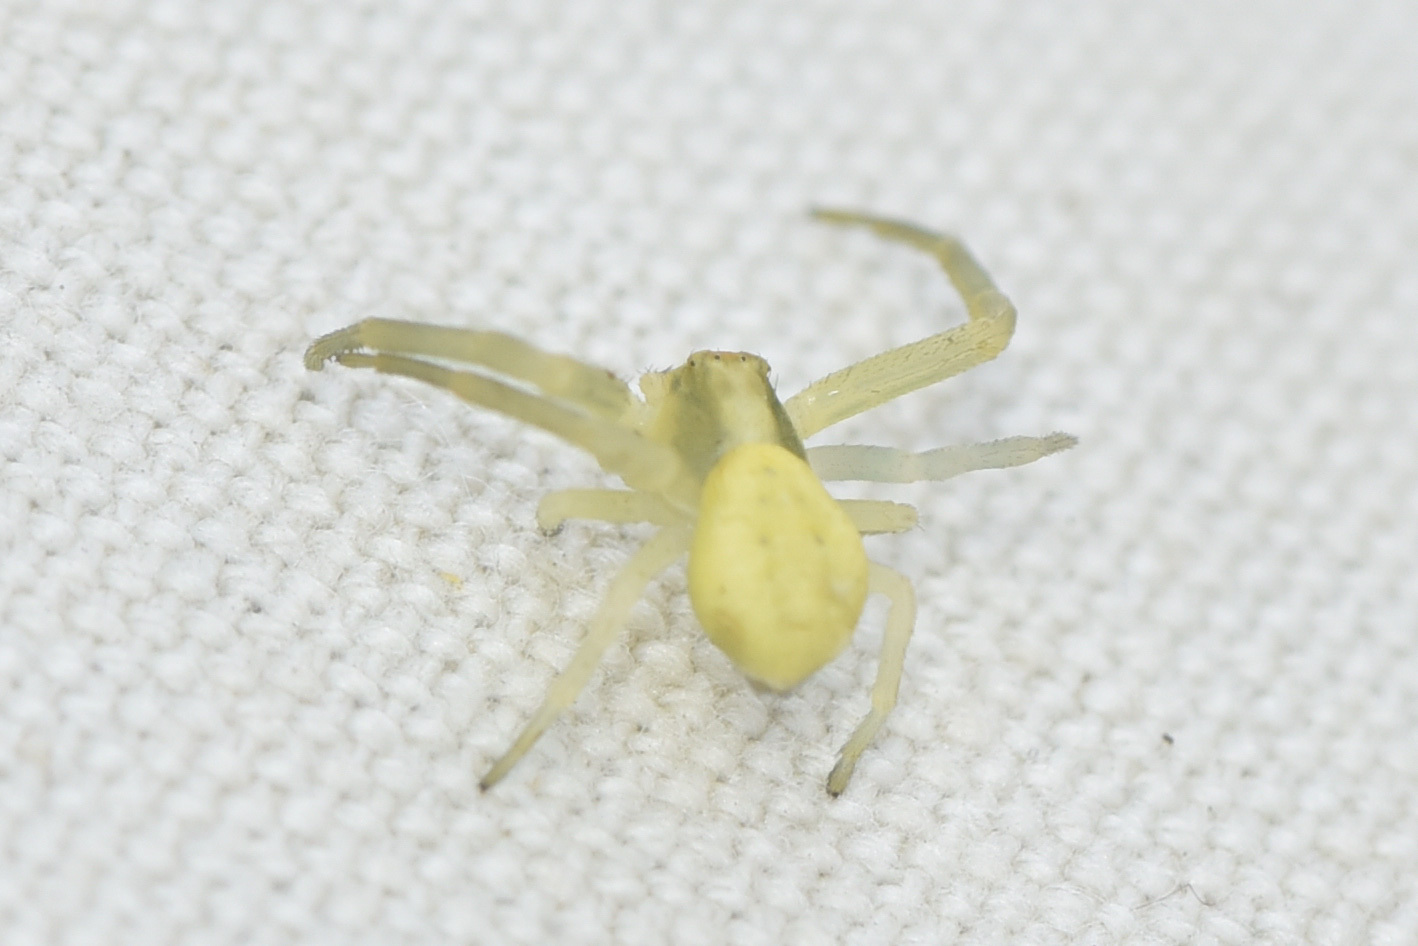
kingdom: Animalia
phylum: Arthropoda
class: Arachnida
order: Araneae
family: Thomisidae
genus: Misumena
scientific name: Misumena vatia
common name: Goldenrod crab spider
